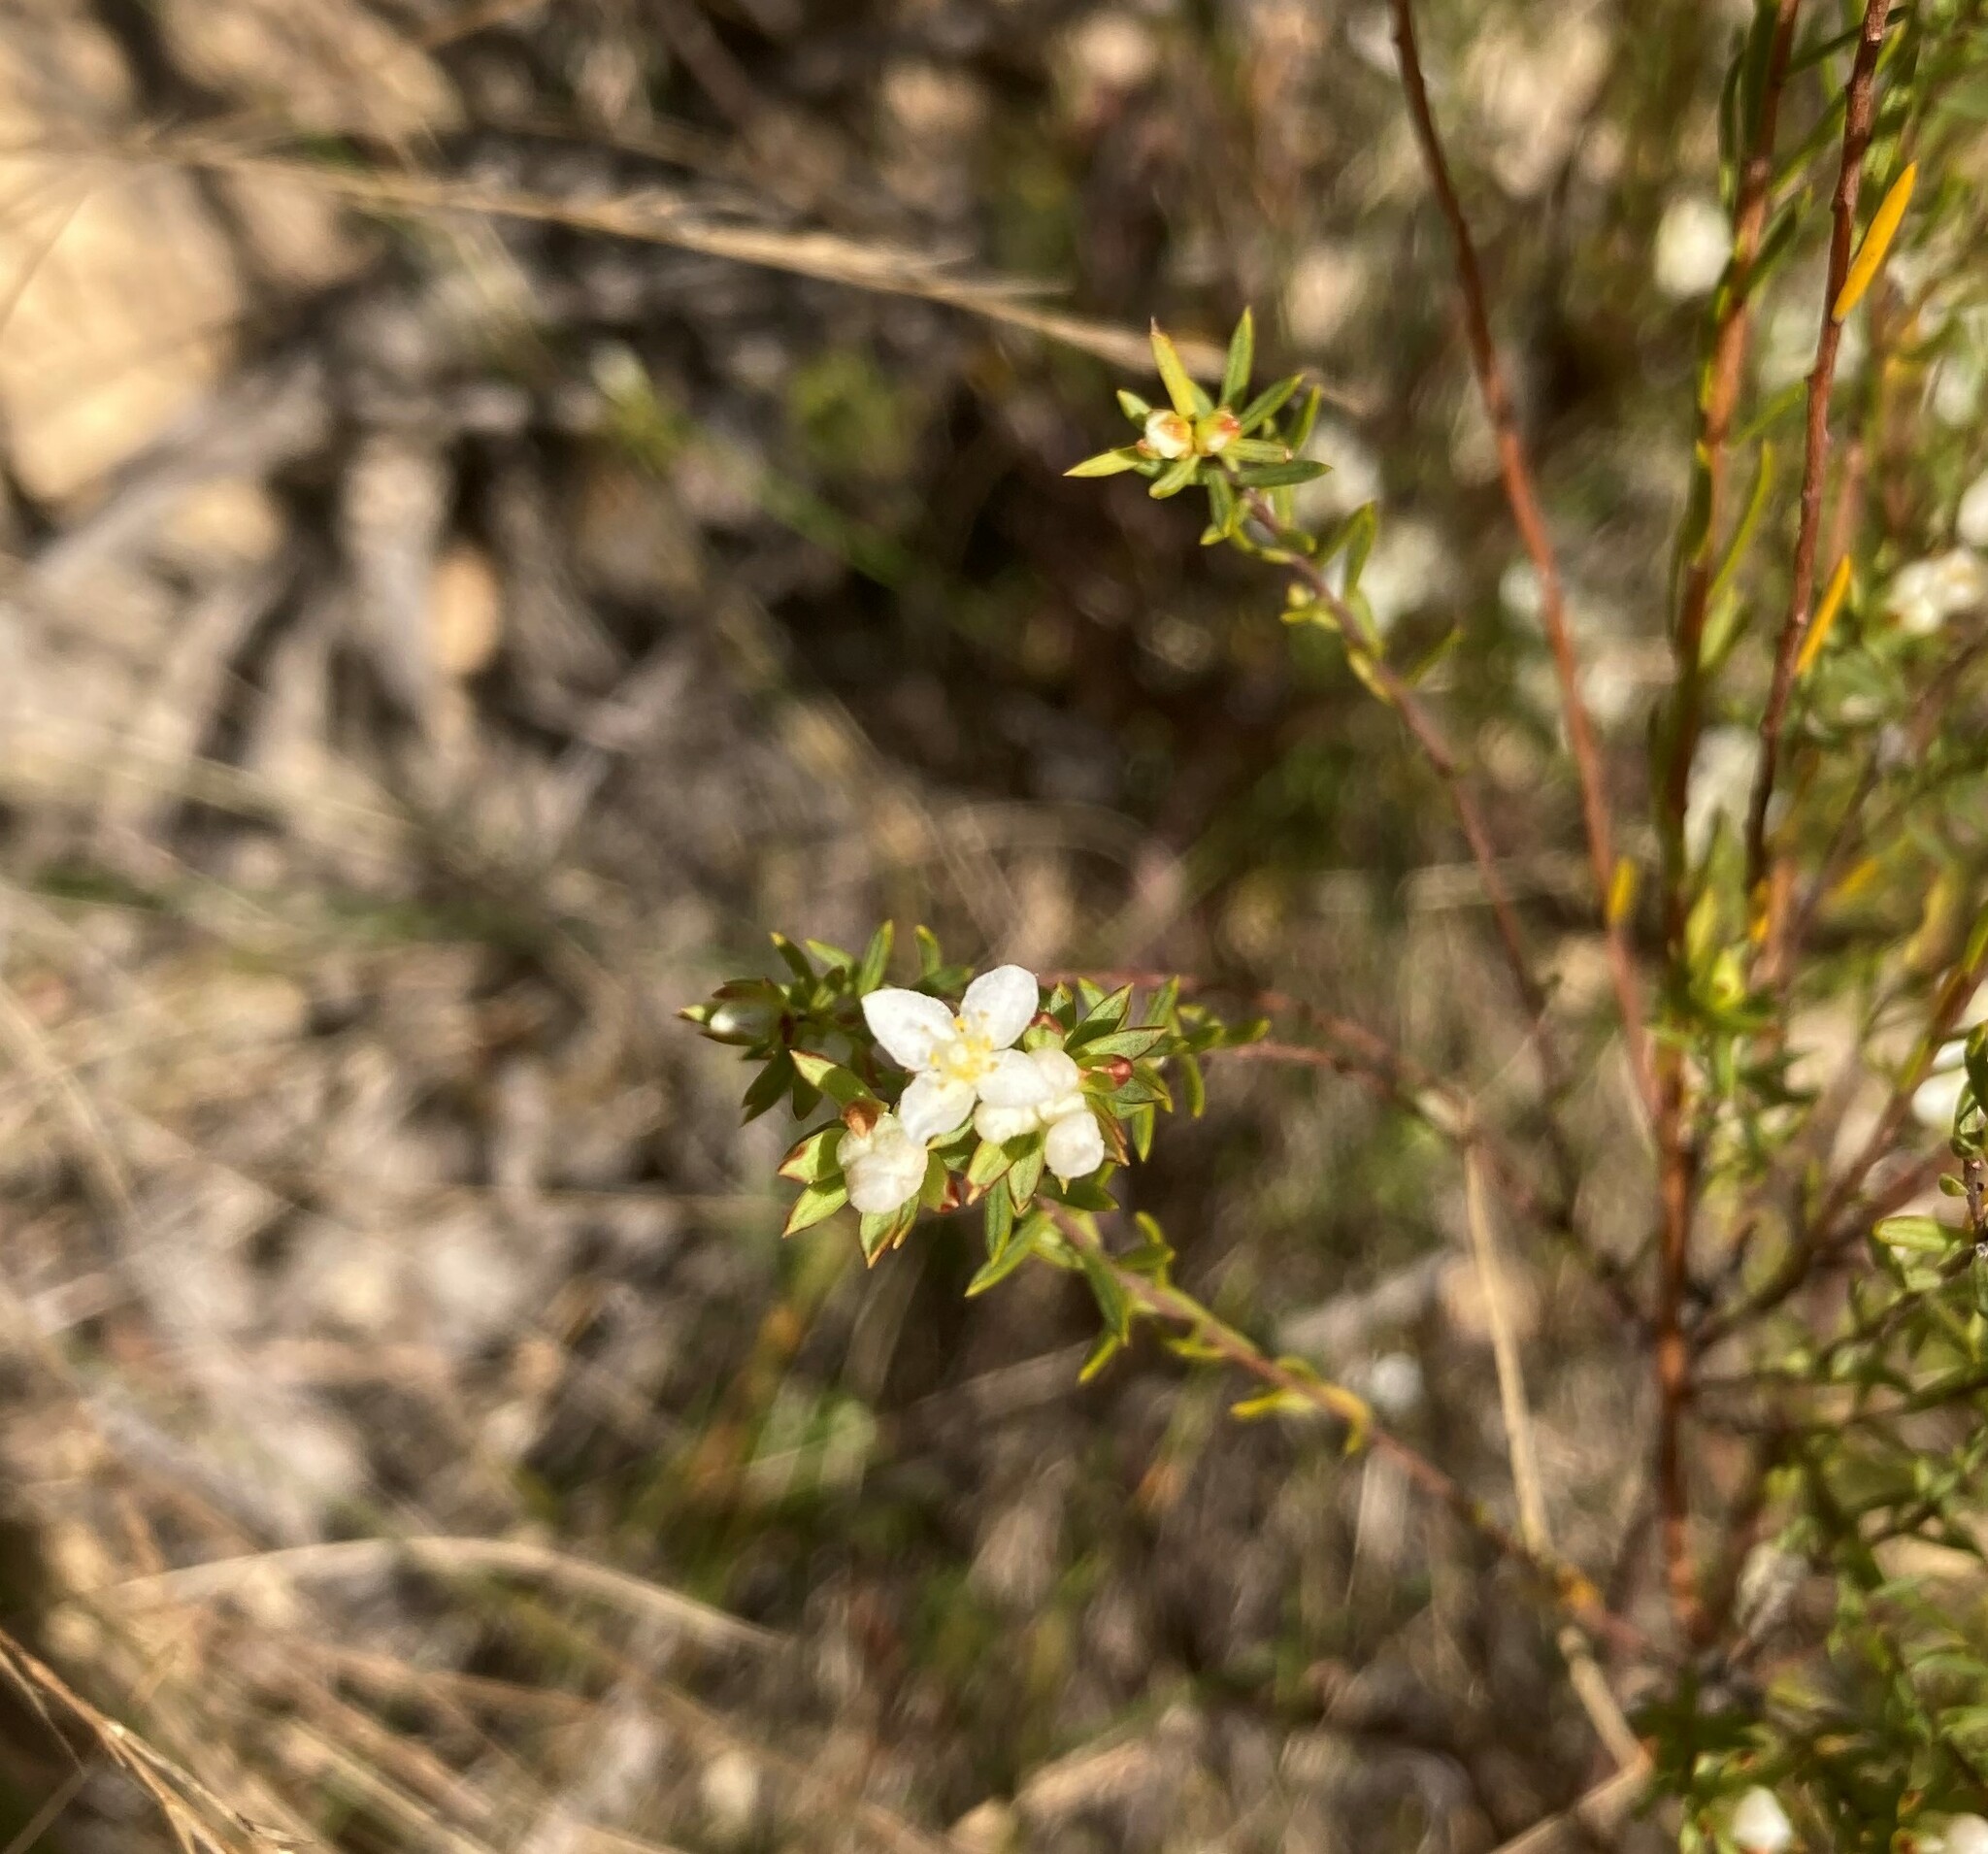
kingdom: Plantae
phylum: Tracheophyta
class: Magnoliopsida
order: Malvales
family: Thymelaeaceae
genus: Lachnaea
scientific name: Lachnaea diosmoides
